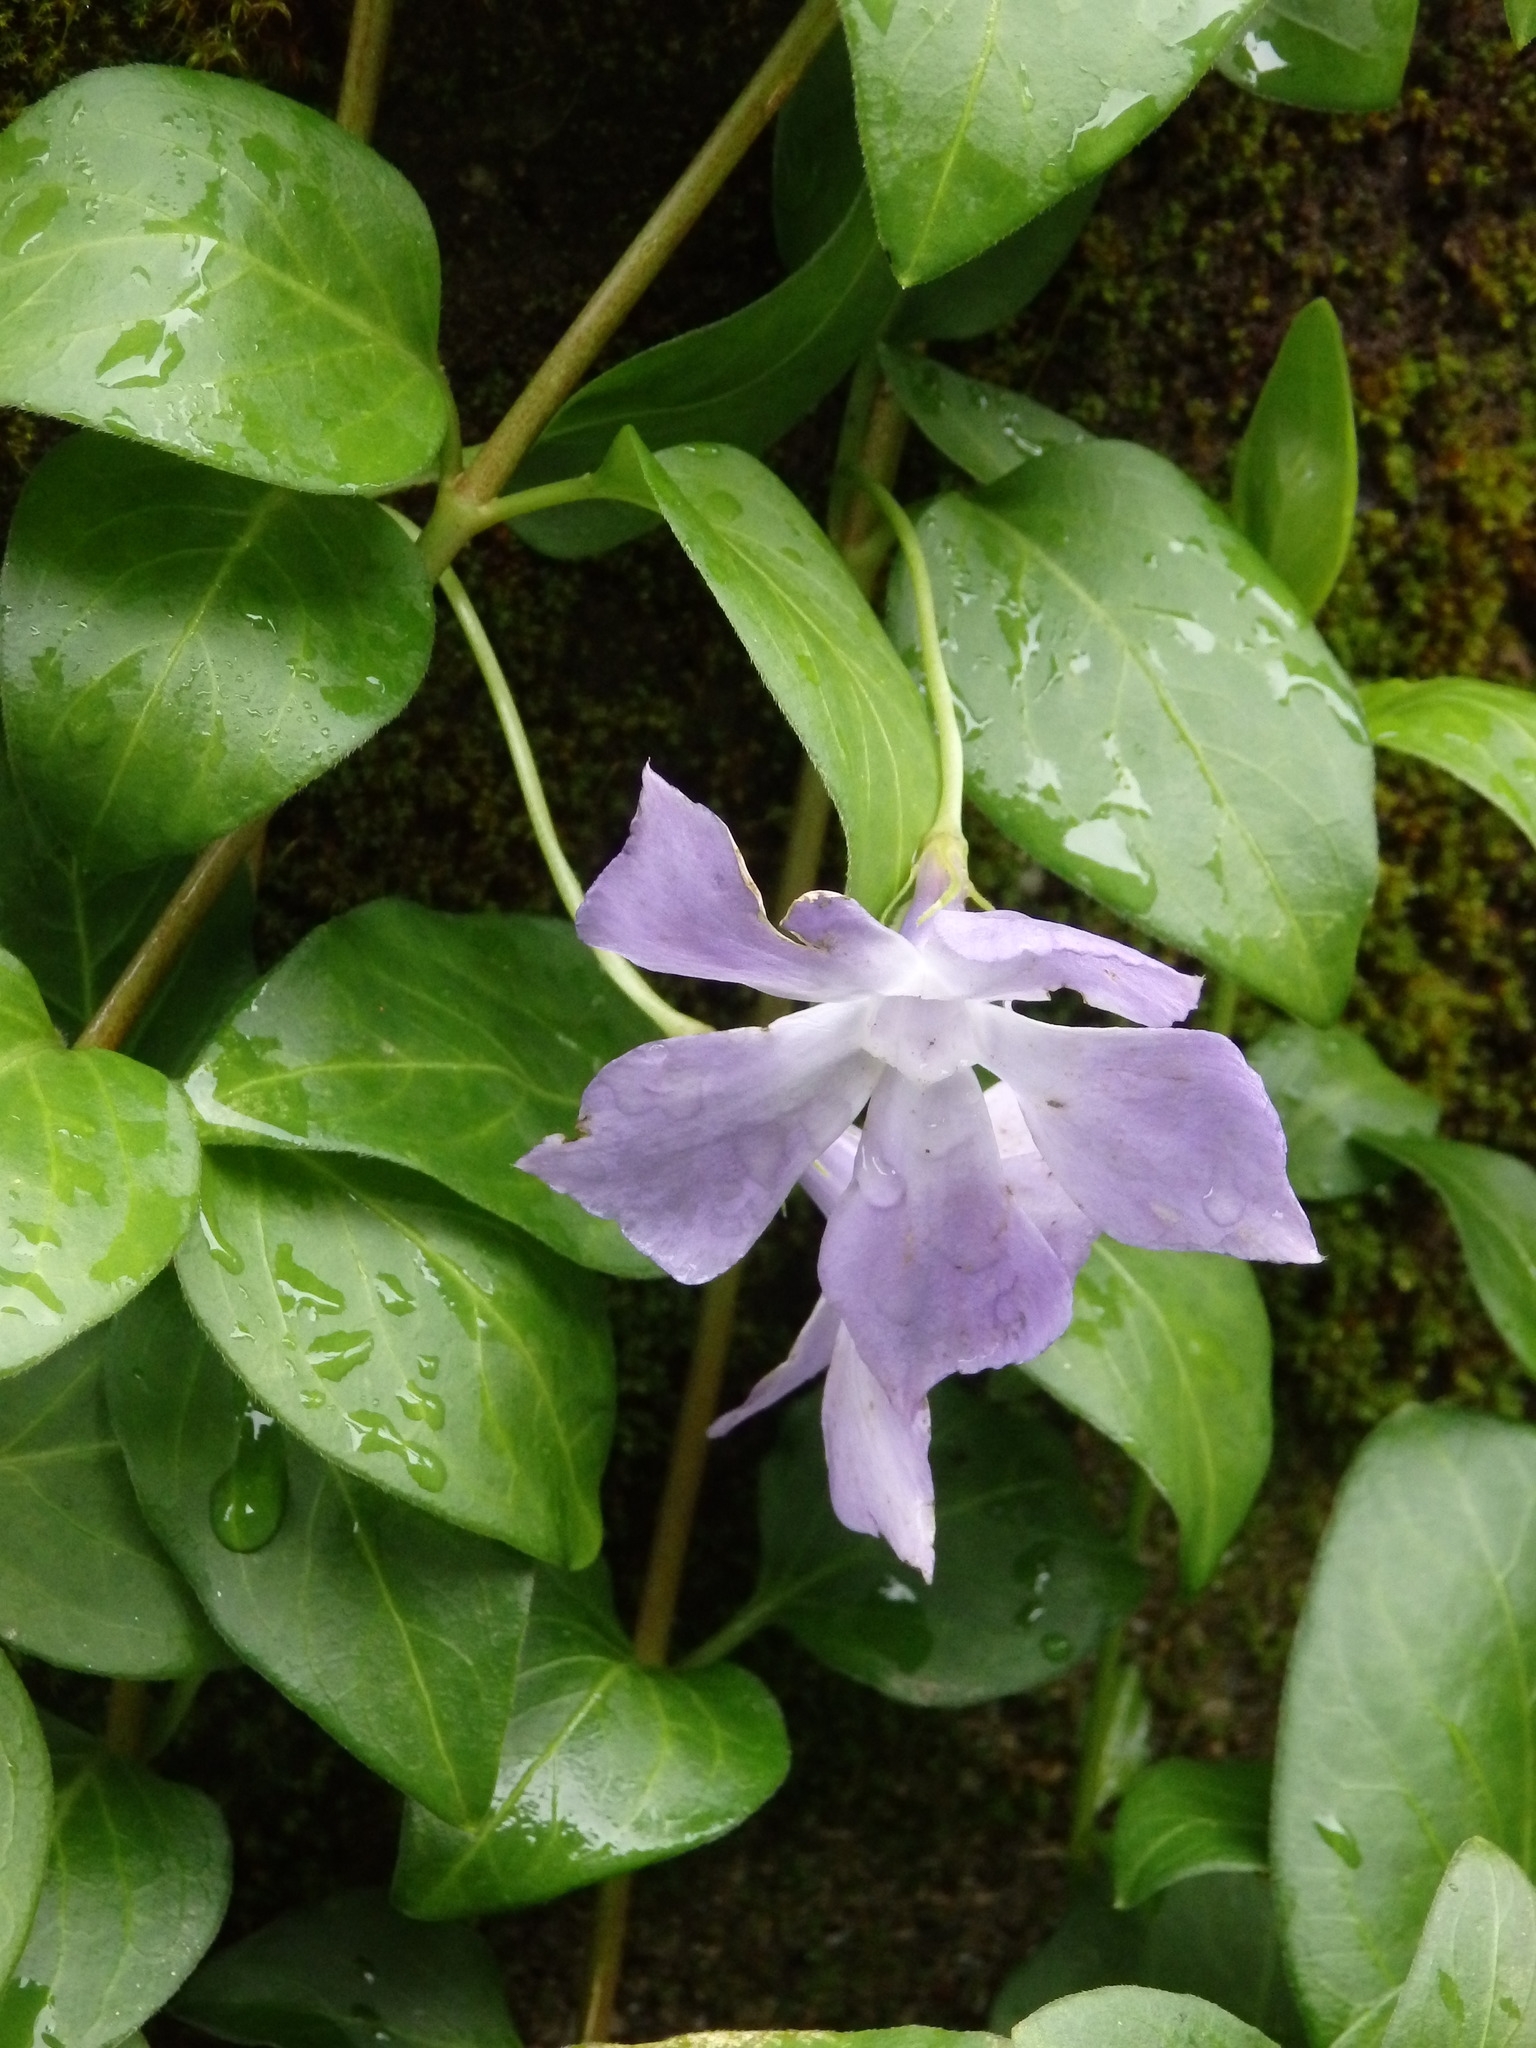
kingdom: Plantae
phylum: Tracheophyta
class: Magnoliopsida
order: Gentianales
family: Apocynaceae
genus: Vinca
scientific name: Vinca major
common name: Greater periwinkle
